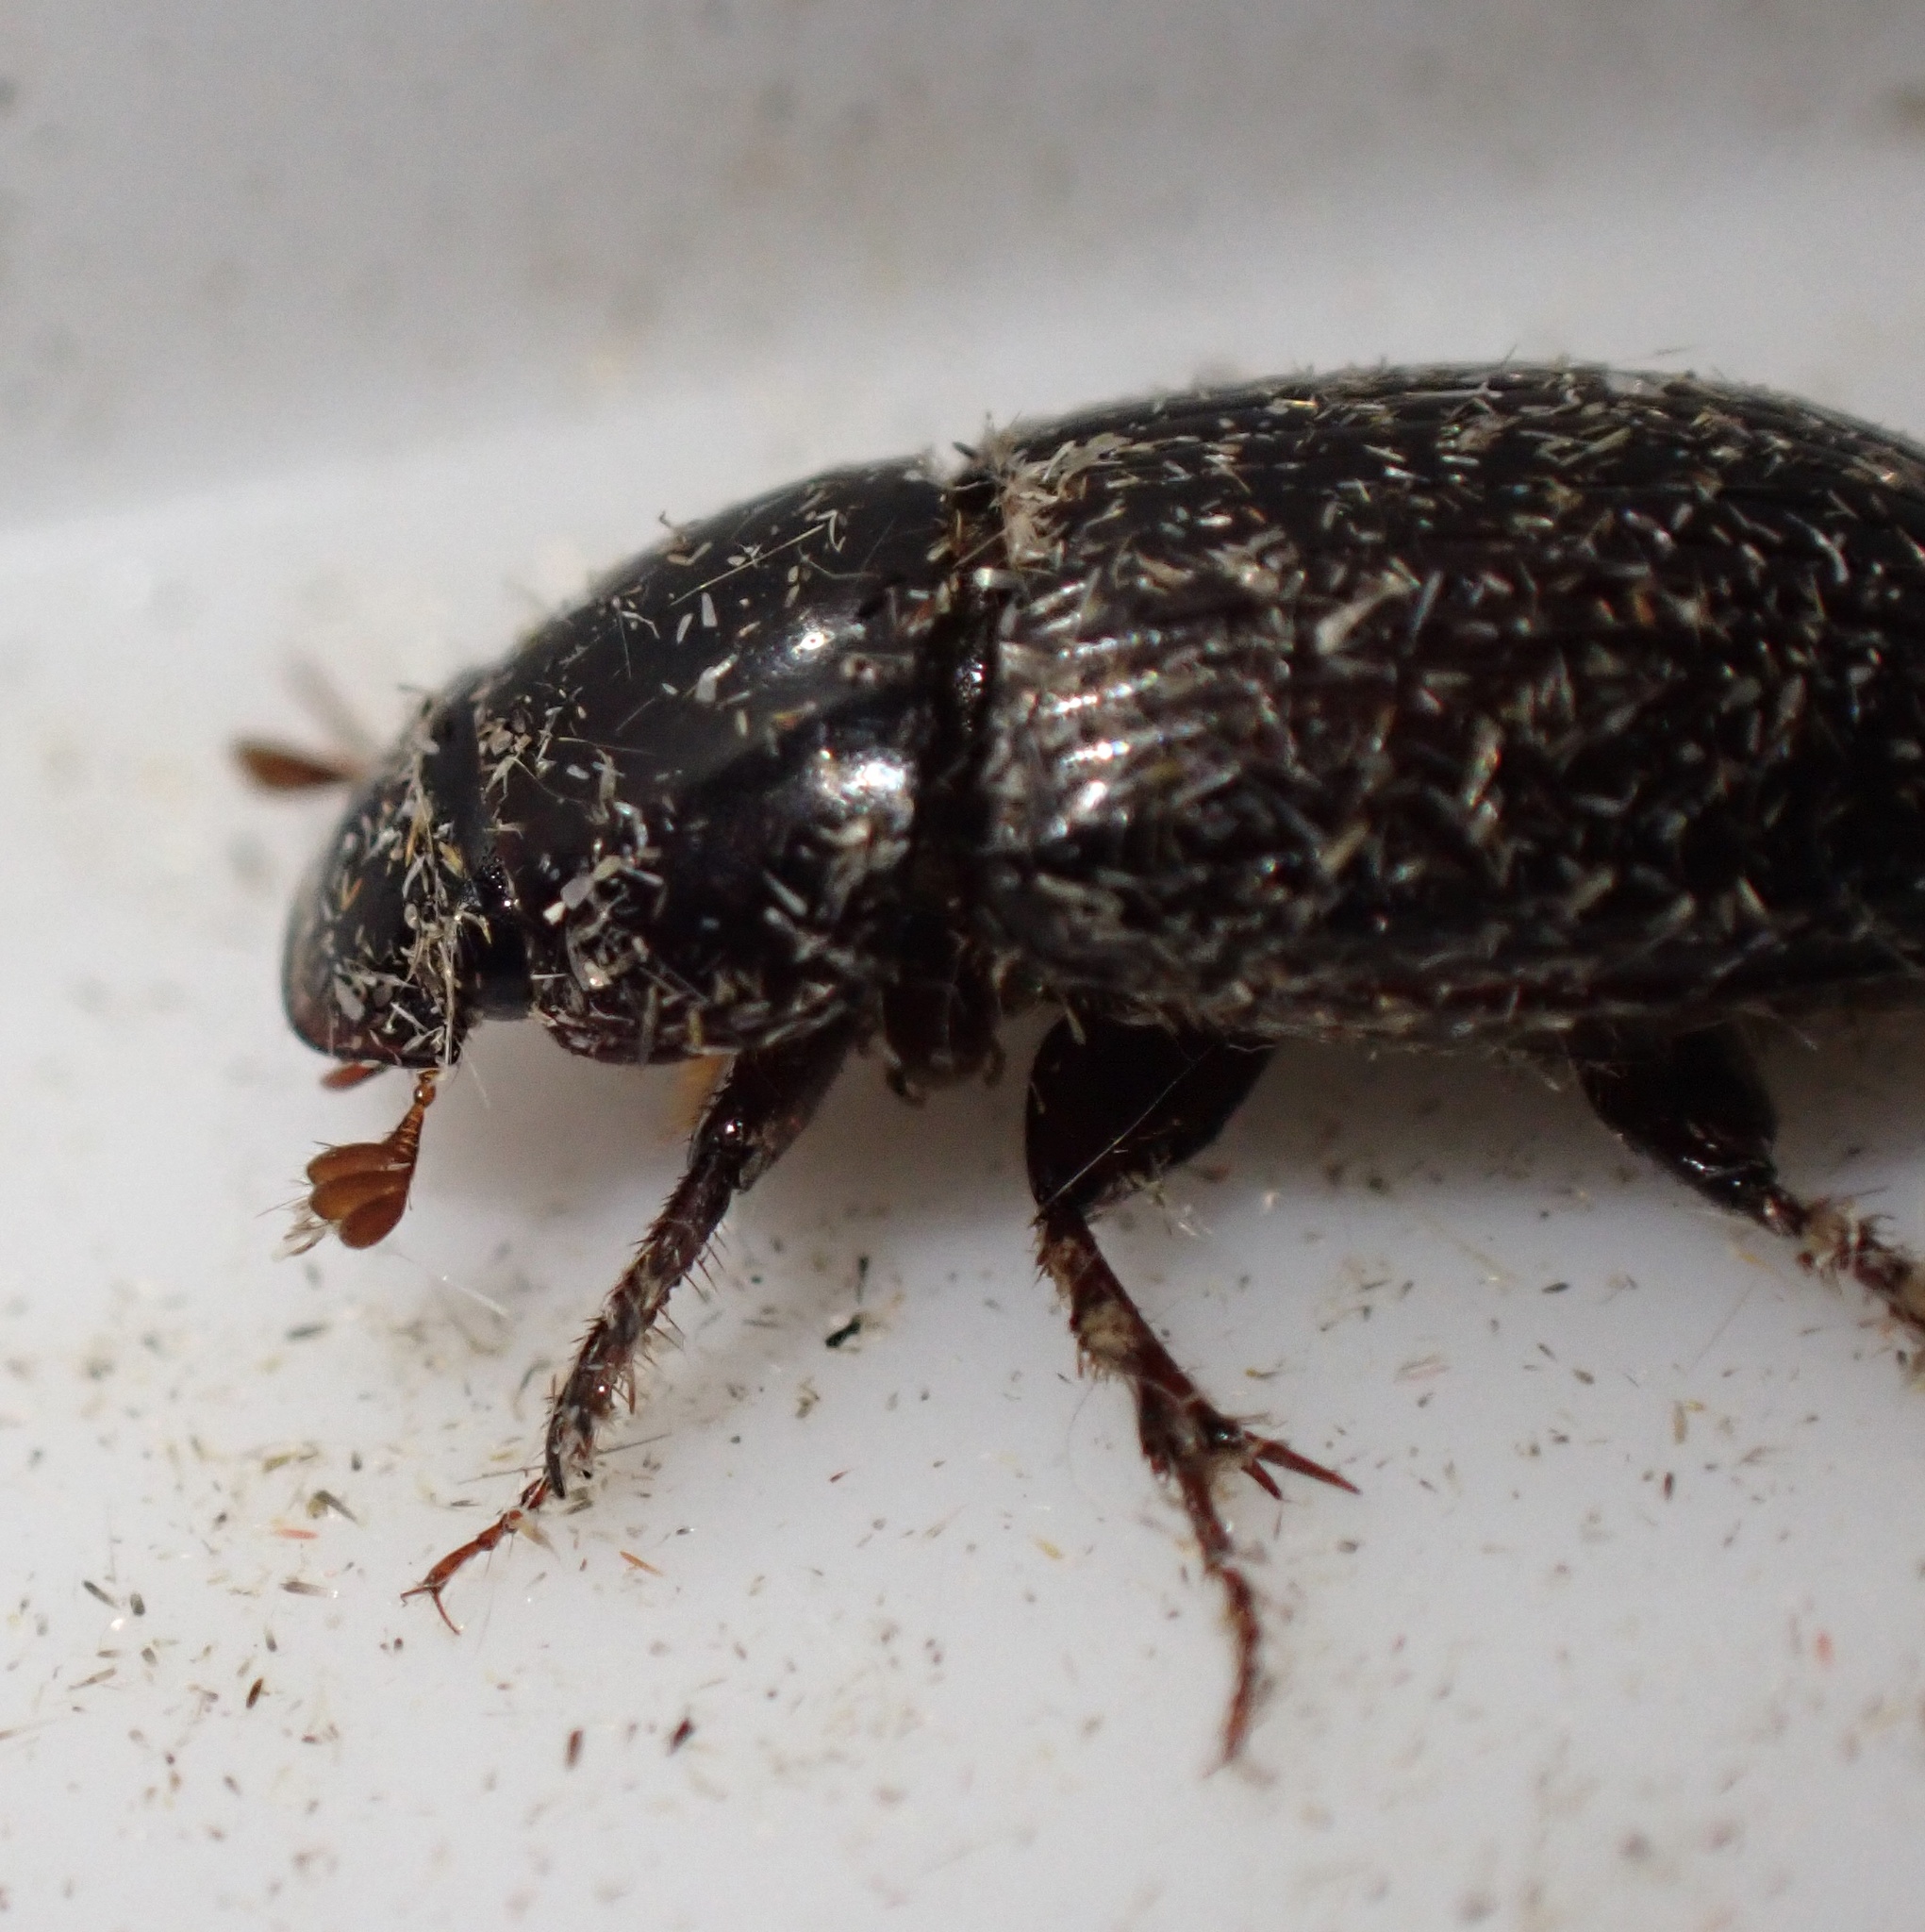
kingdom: Animalia
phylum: Arthropoda
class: Insecta
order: Coleoptera
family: Scarabaeidae
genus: Acrossus
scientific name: Acrossus rufipes
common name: Night-flying dung beetle
